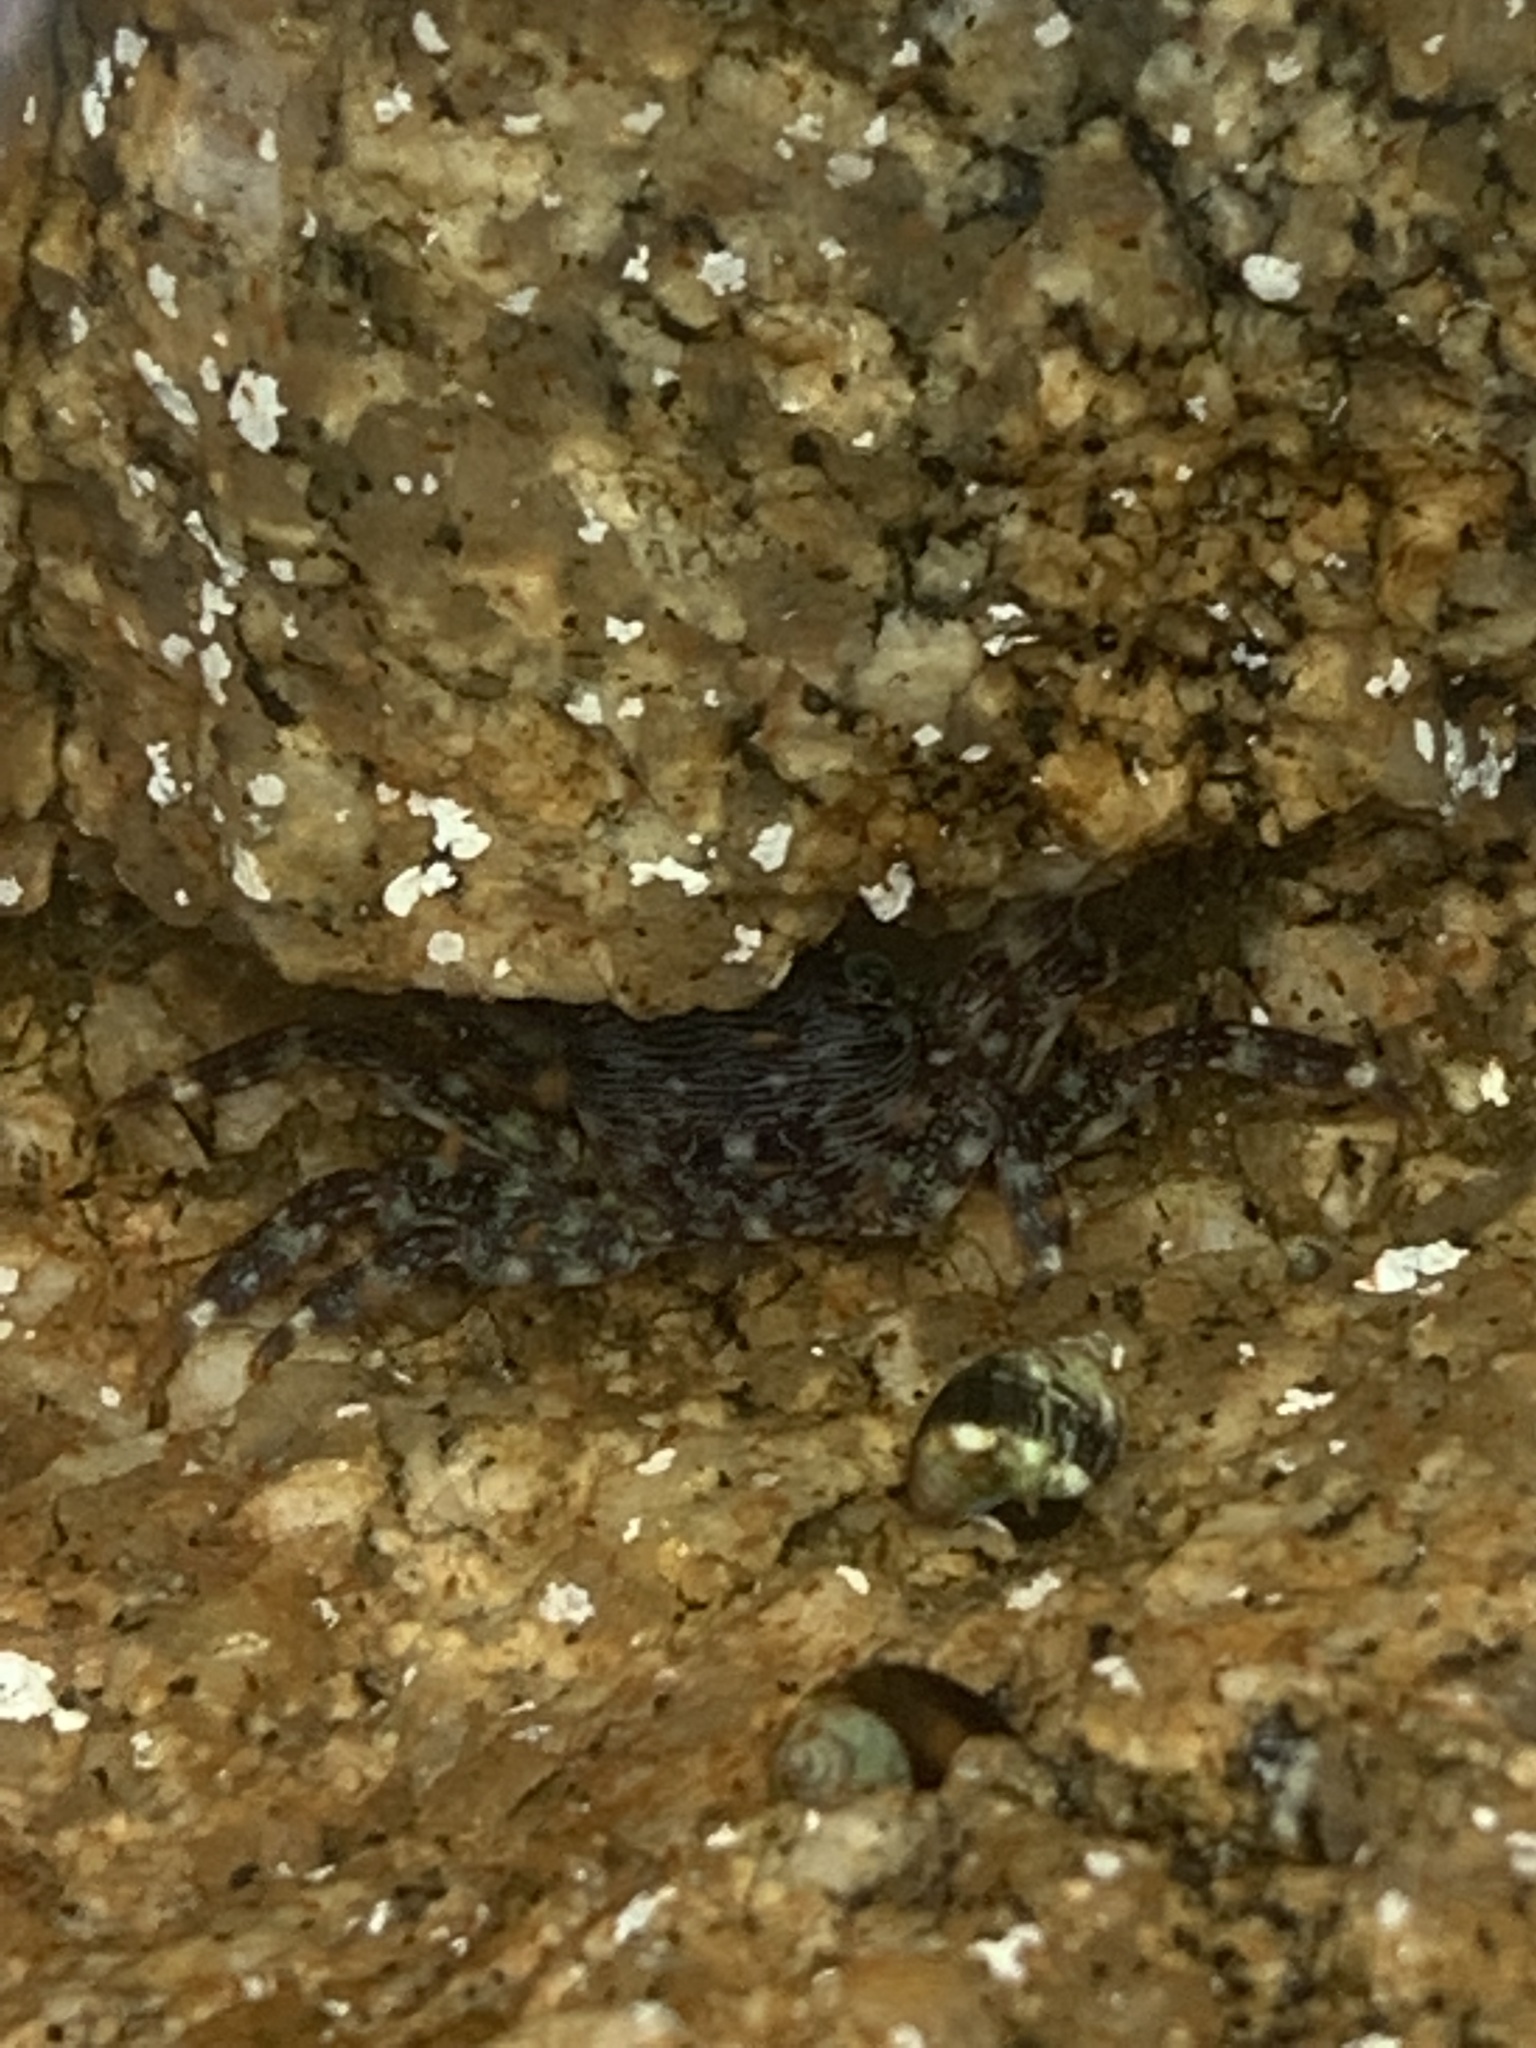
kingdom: Animalia
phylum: Arthropoda
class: Malacostraca
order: Decapoda
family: Grapsidae
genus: Pachygrapsus
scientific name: Pachygrapsus crassipes
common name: Striped shore crab
